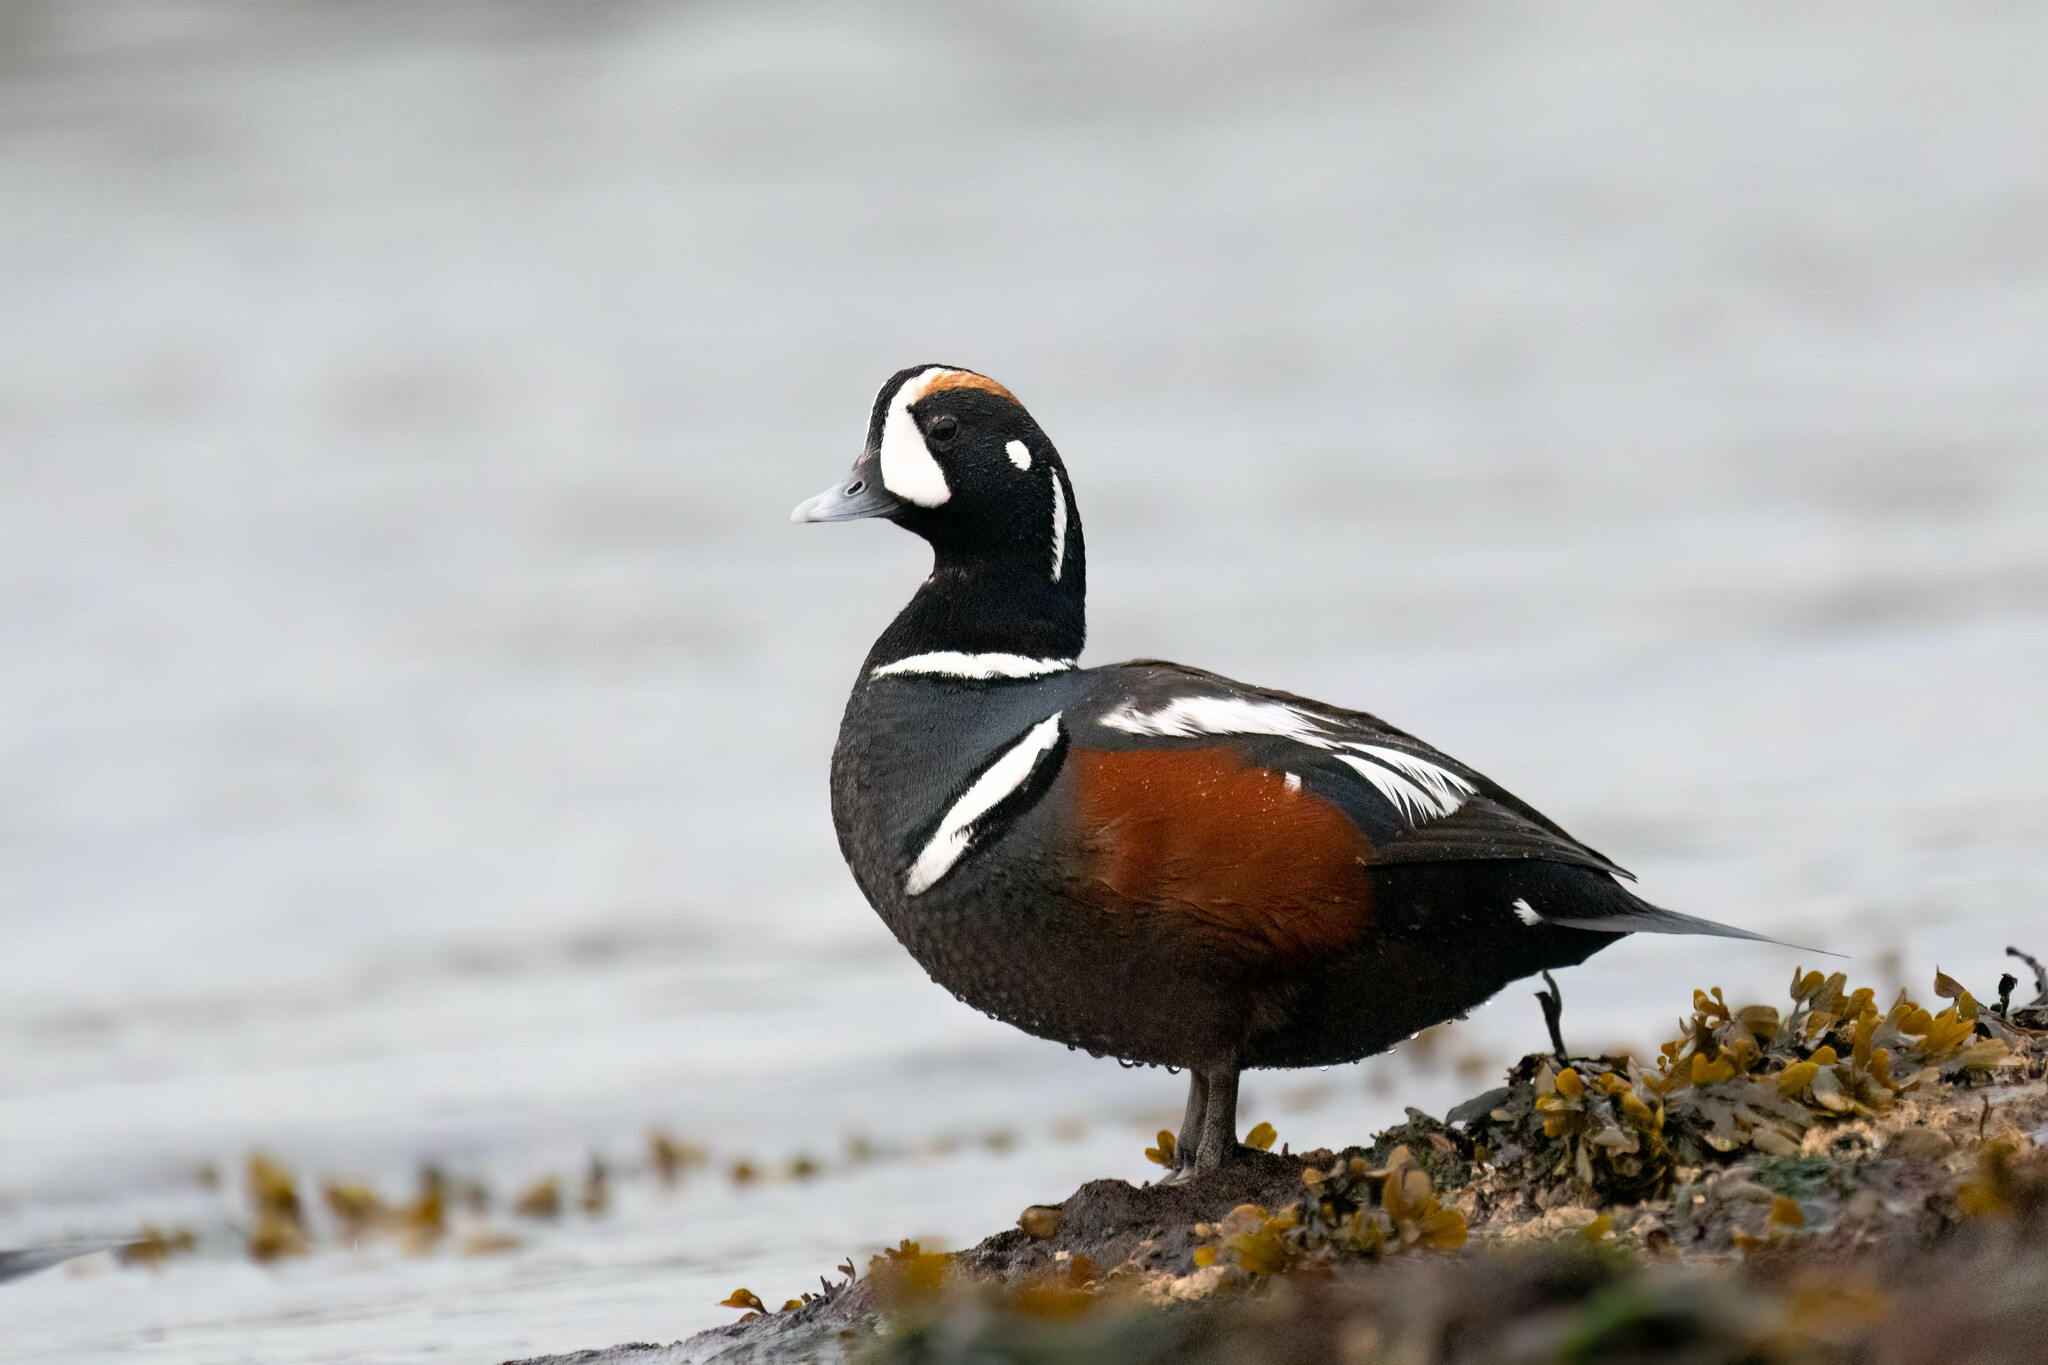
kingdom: Animalia
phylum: Chordata
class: Aves
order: Anseriformes
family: Anatidae
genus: Histrionicus
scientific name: Histrionicus histrionicus
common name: Harlequin duck
